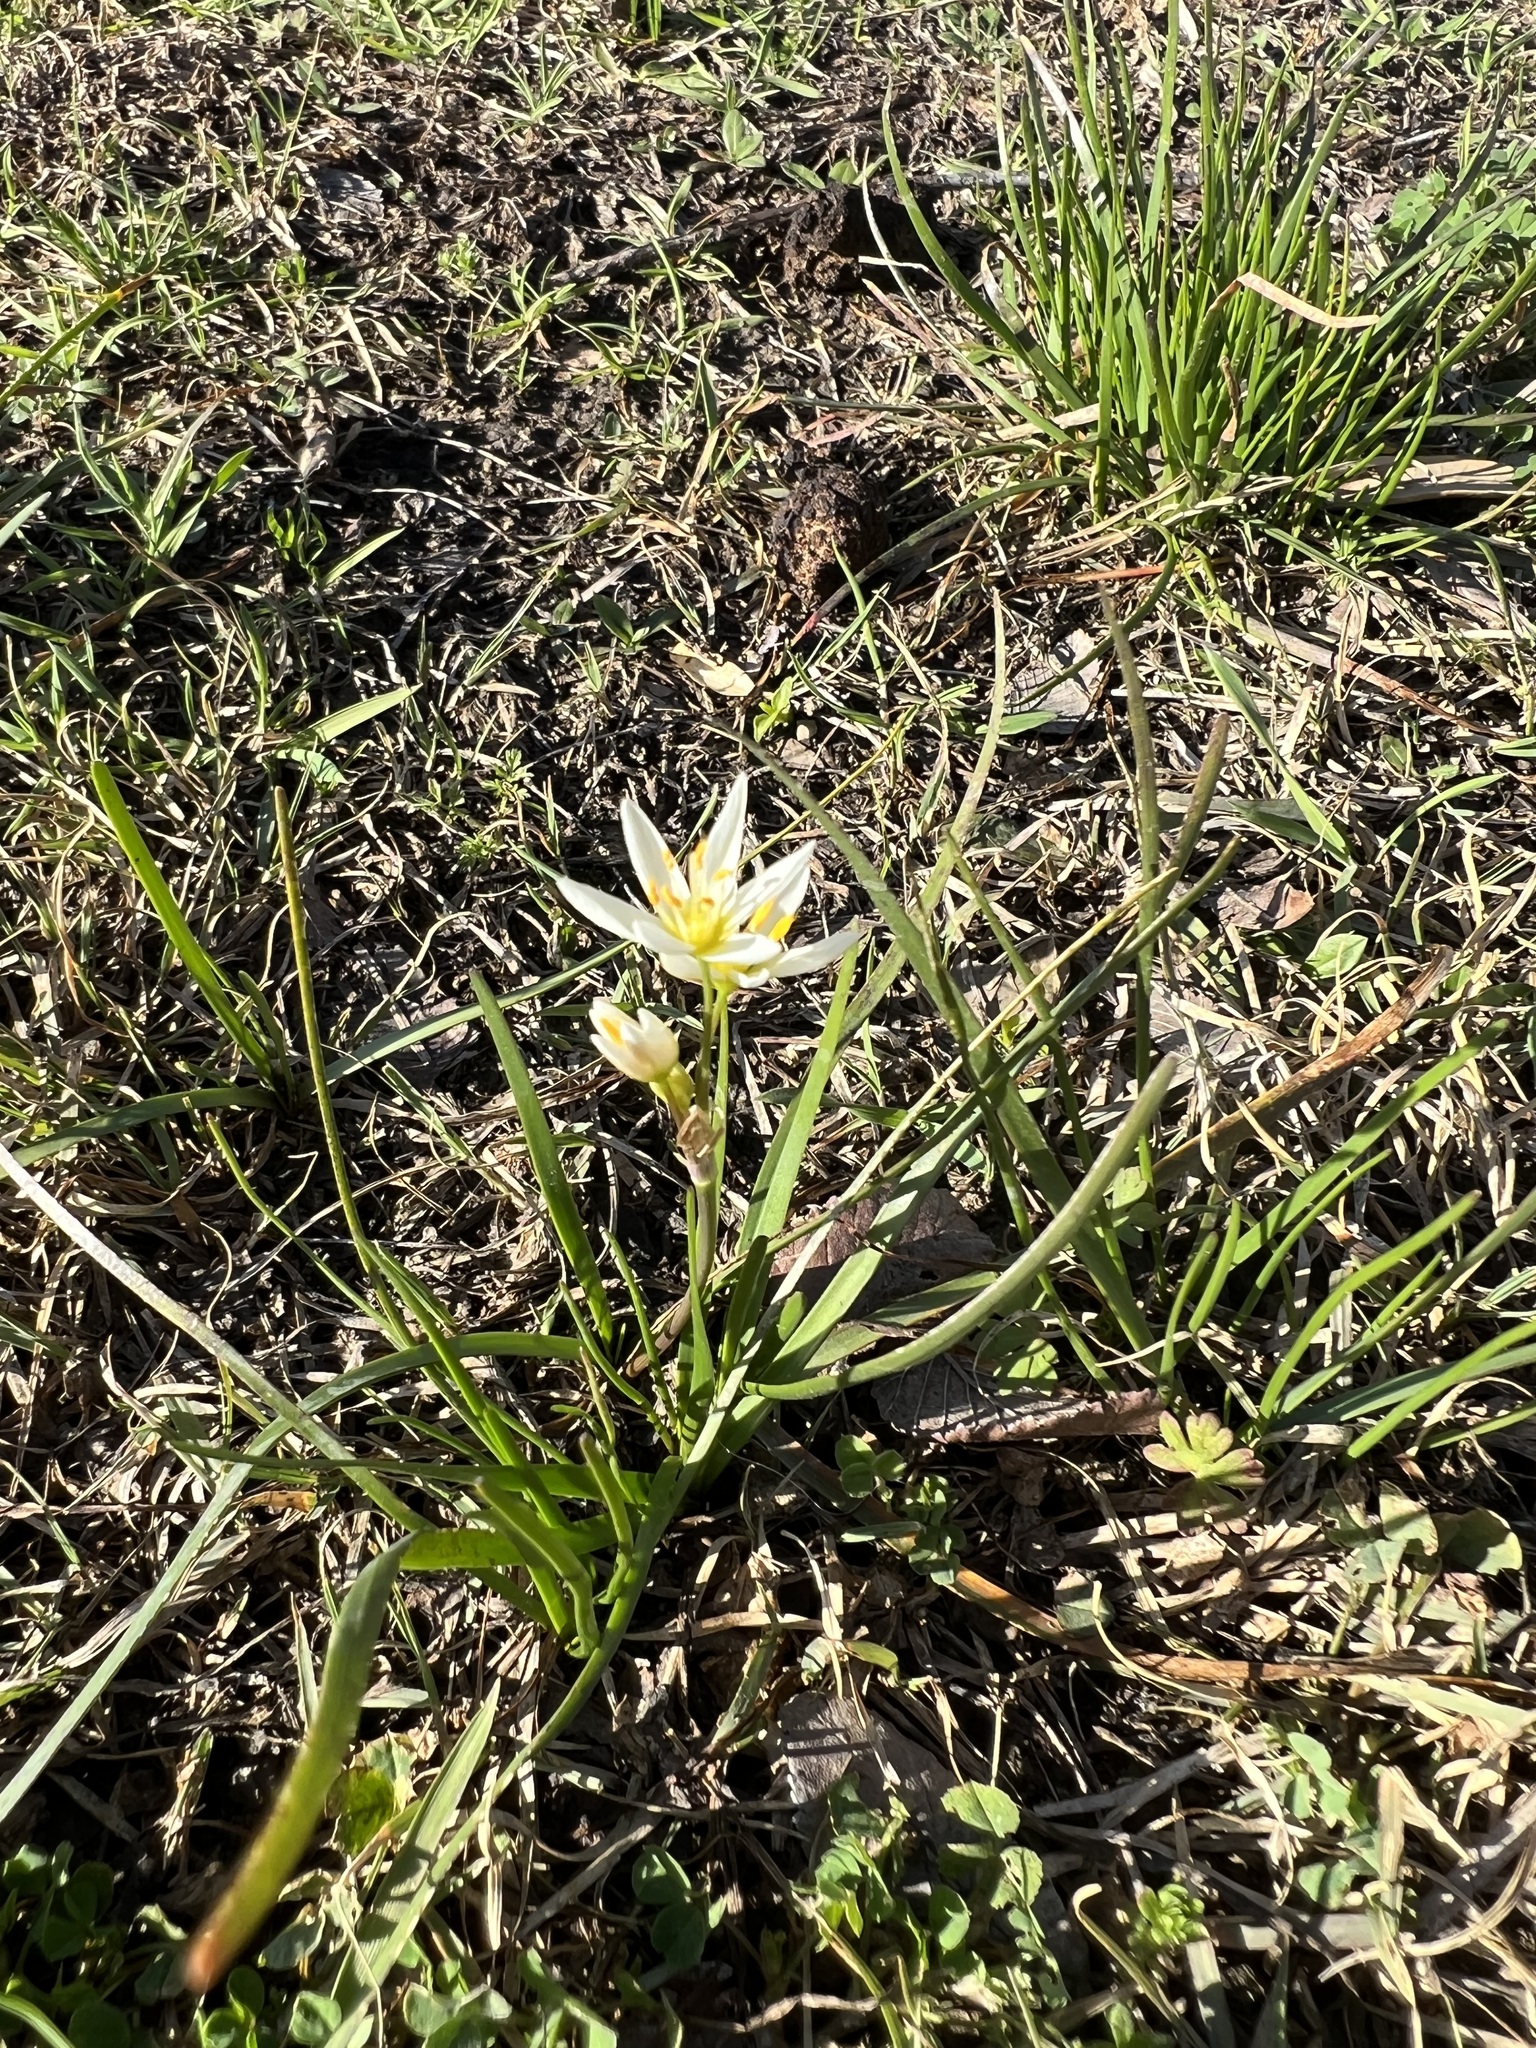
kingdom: Plantae
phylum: Tracheophyta
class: Liliopsida
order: Asparagales
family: Amaryllidaceae
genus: Nothoscordum
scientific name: Nothoscordum bivalve
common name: Crow-poison
